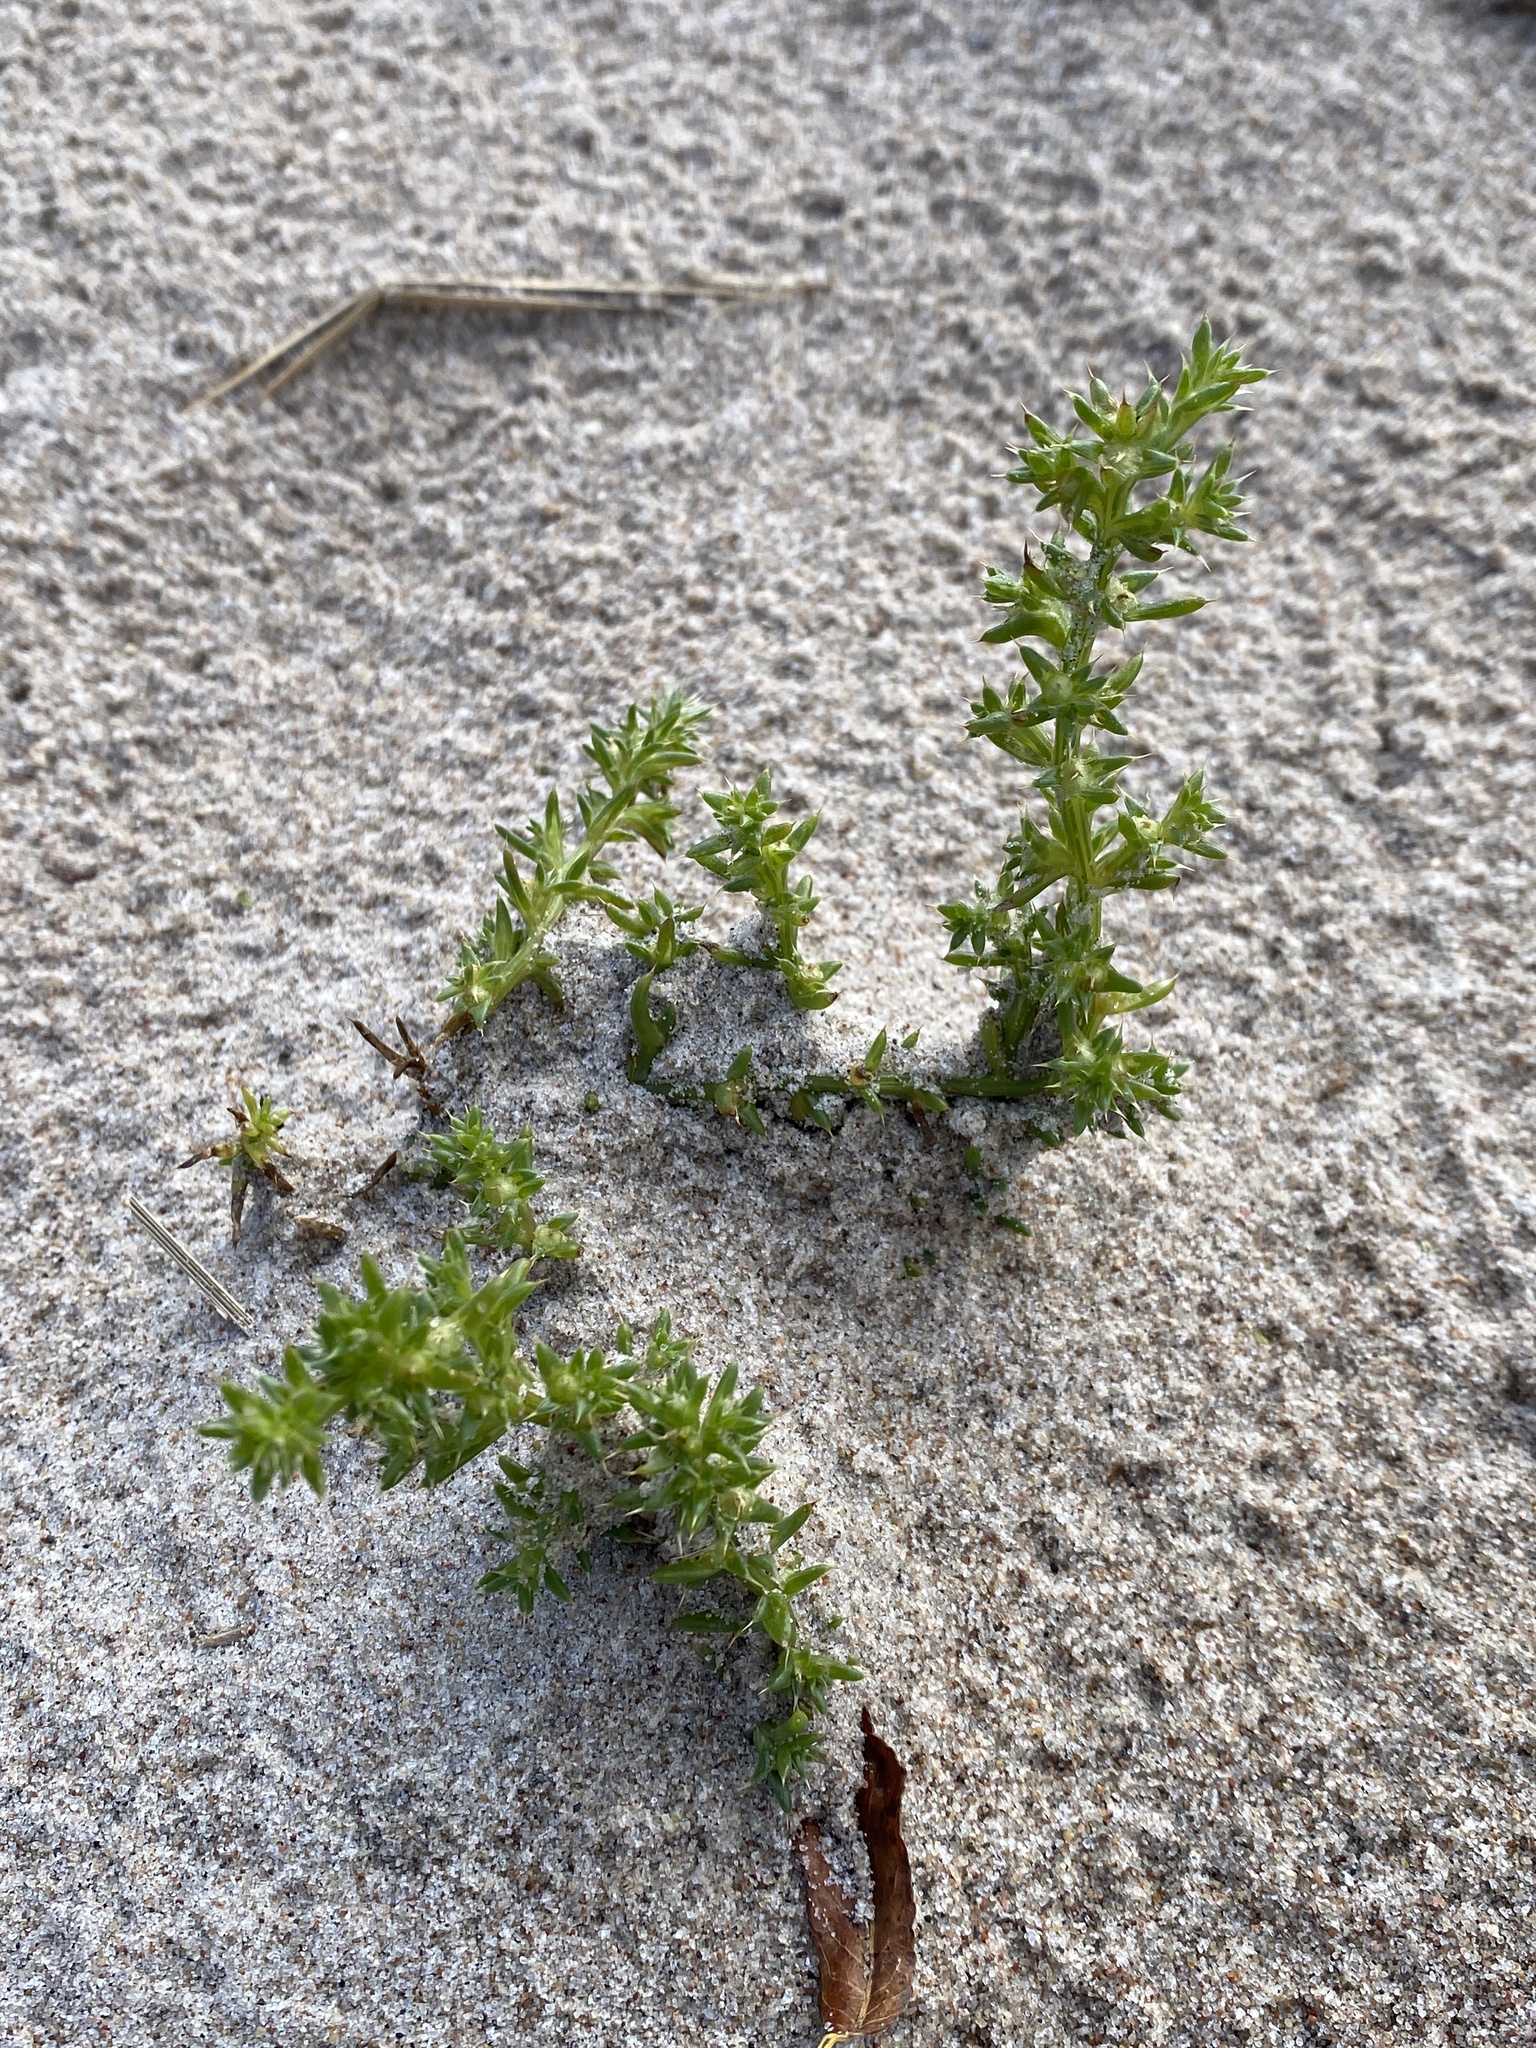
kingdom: Plantae
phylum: Tracheophyta
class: Magnoliopsida
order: Caryophyllales
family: Amaranthaceae
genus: Salsola
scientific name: Salsola kali
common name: Saltwort
